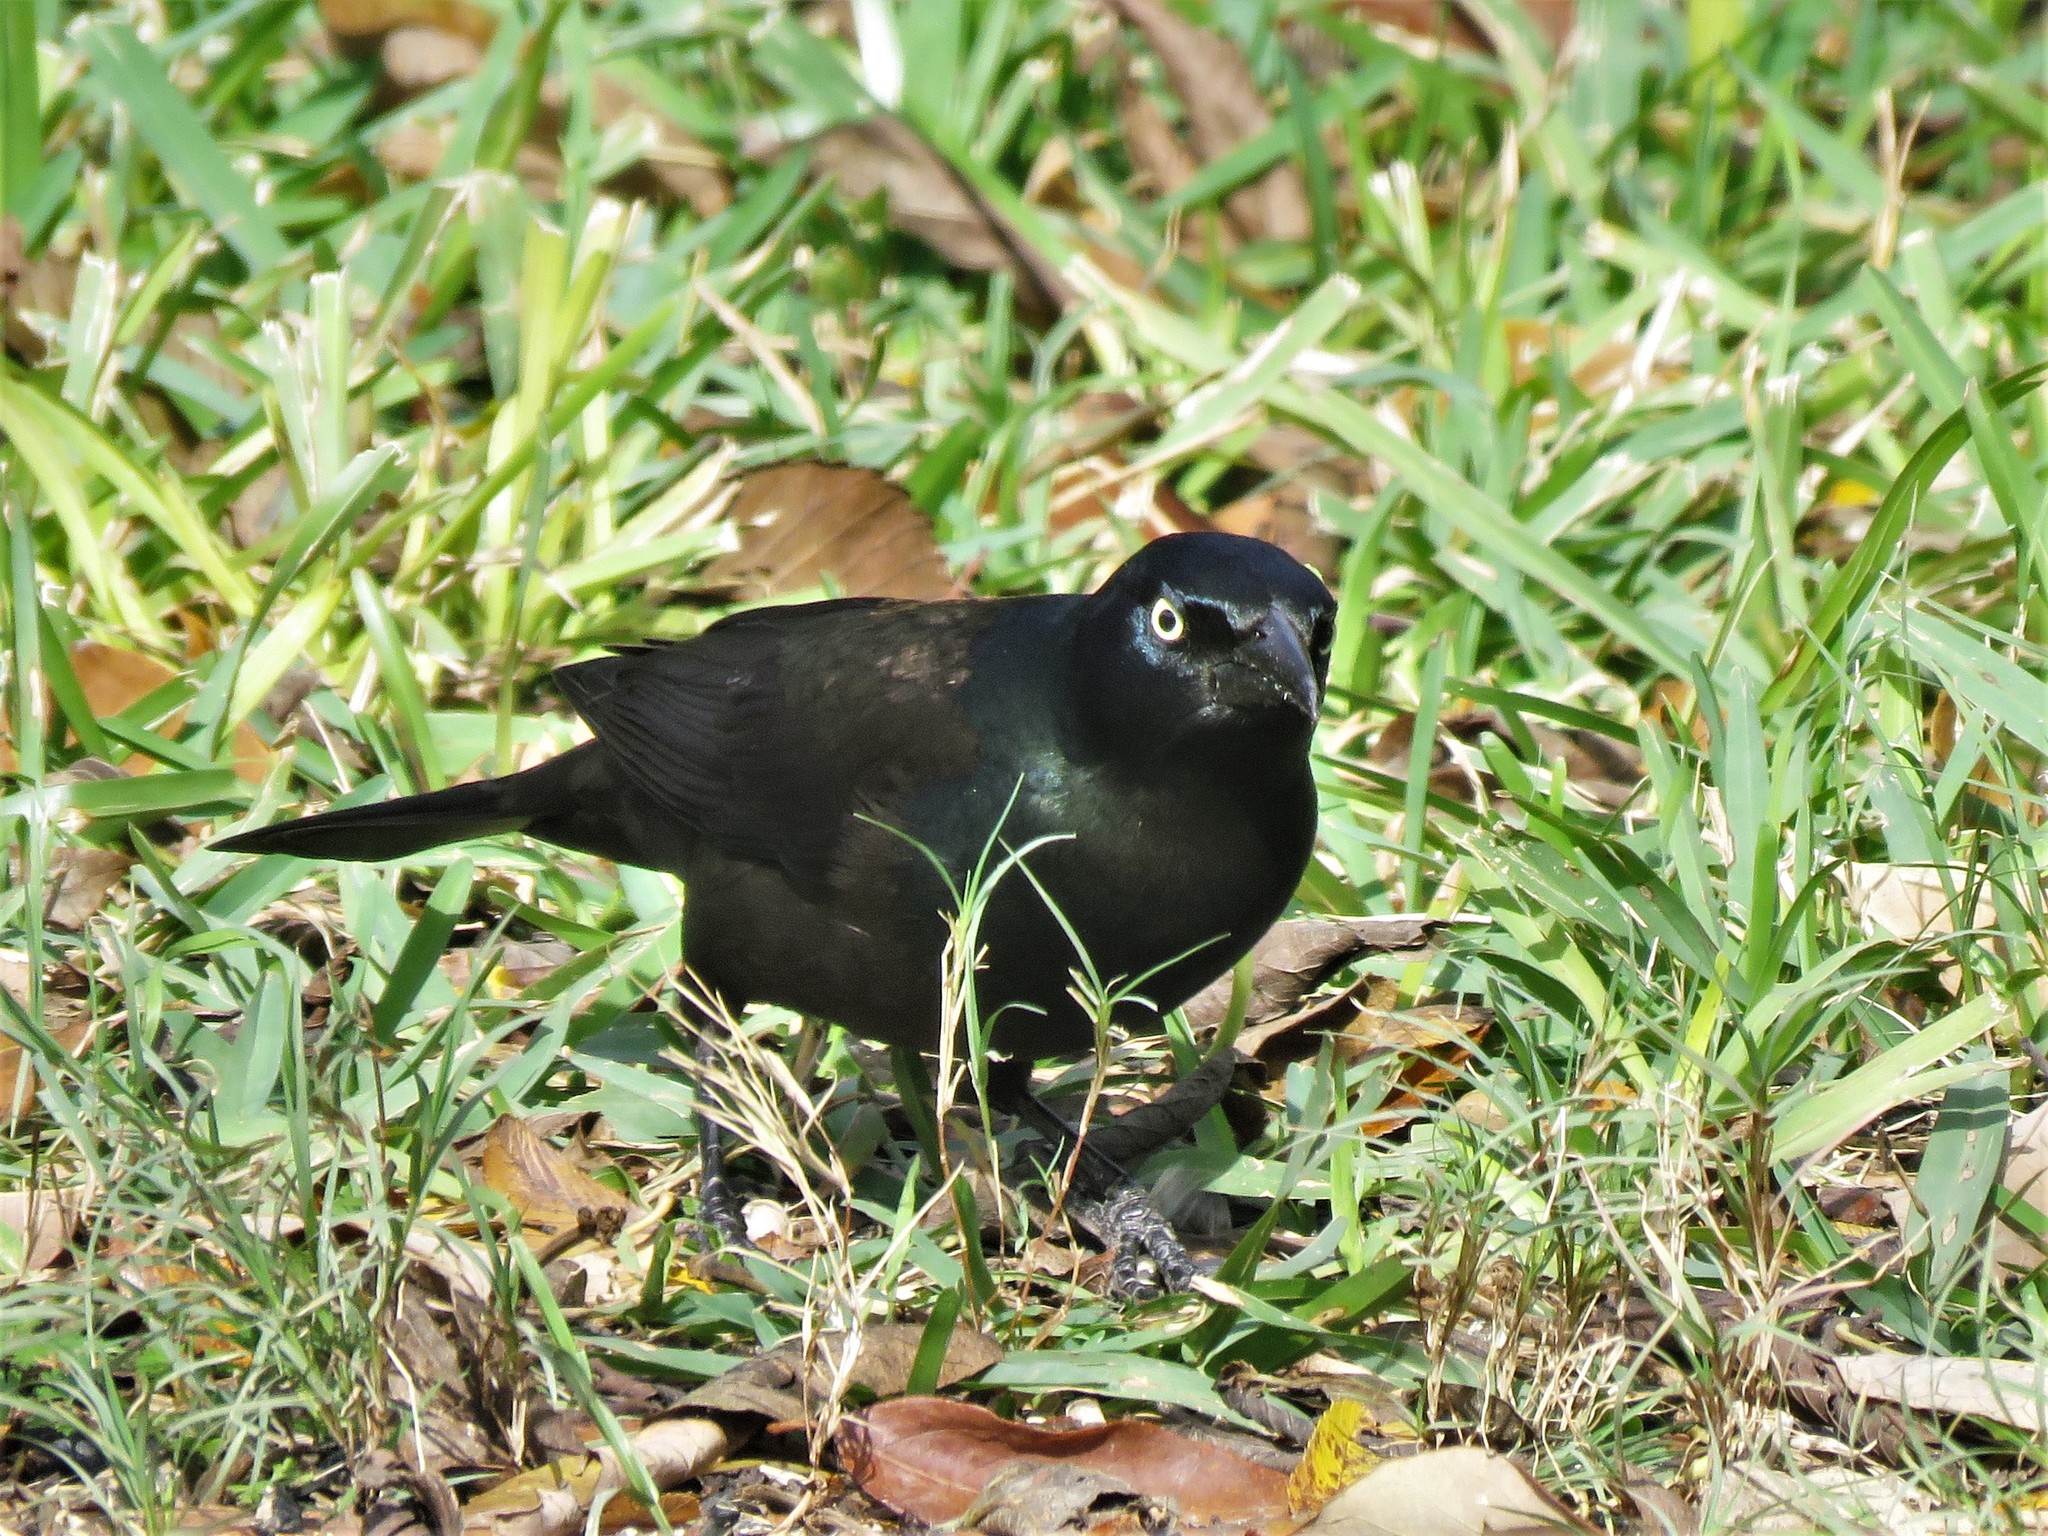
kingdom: Animalia
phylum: Chordata
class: Aves
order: Passeriformes
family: Icteridae
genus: Quiscalus
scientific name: Quiscalus quiscula
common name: Common grackle
